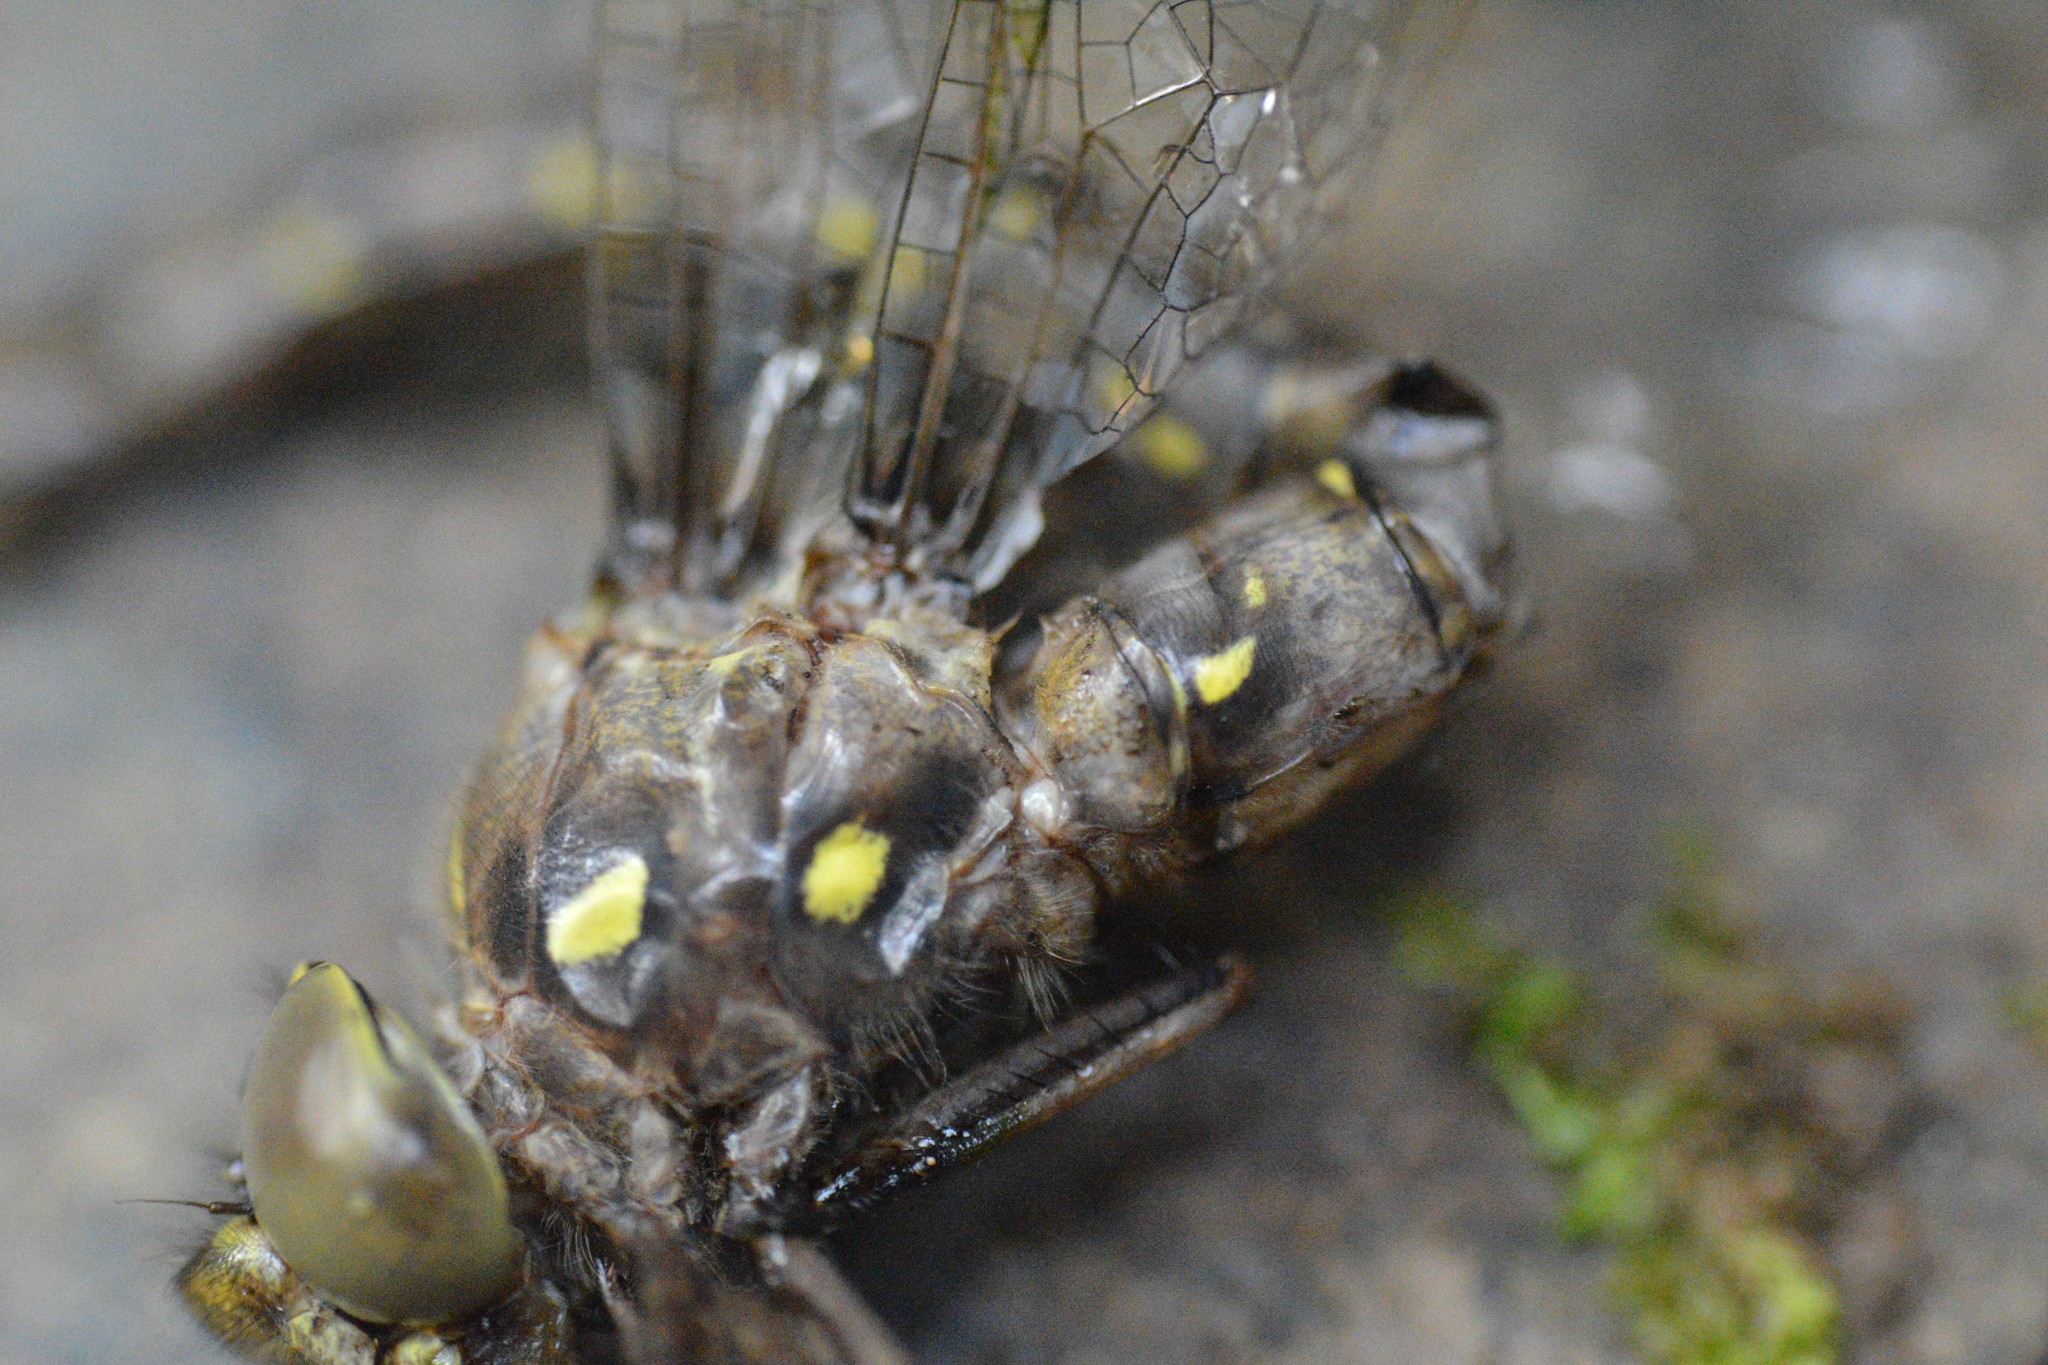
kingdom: Animalia
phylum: Arthropoda
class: Insecta
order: Odonata
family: Aeshnidae
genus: Boyeria
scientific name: Boyeria vinosa
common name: Fawn darner
